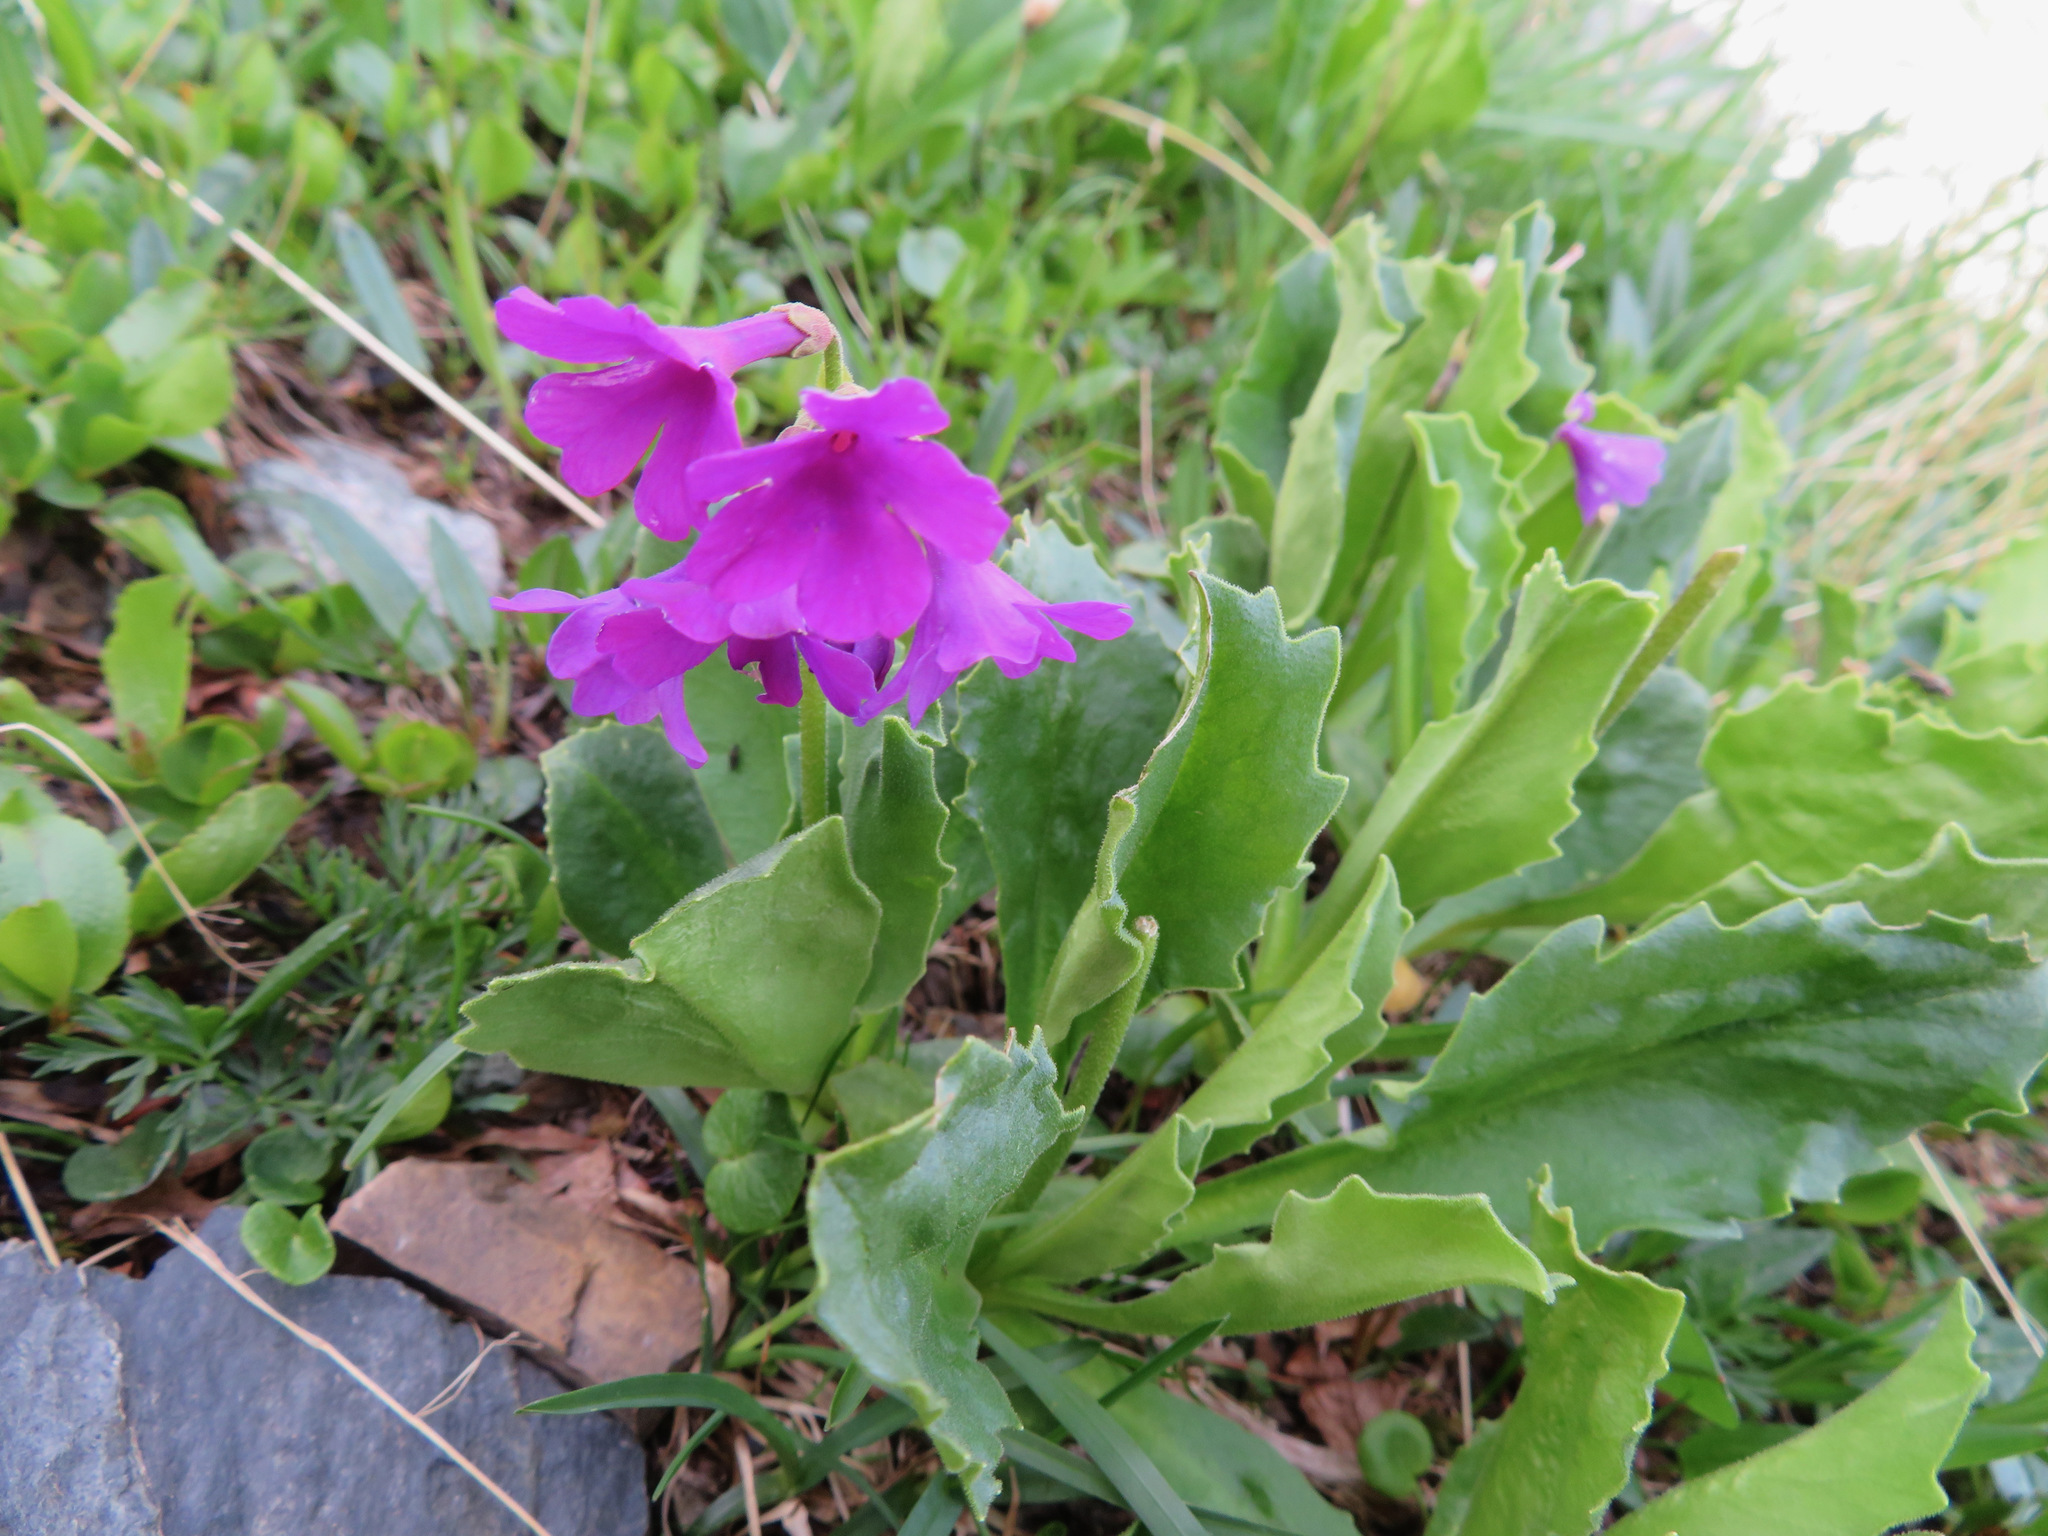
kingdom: Plantae
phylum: Tracheophyta
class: Magnoliopsida
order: Ericales
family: Primulaceae
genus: Primula
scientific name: Primula latifolia
